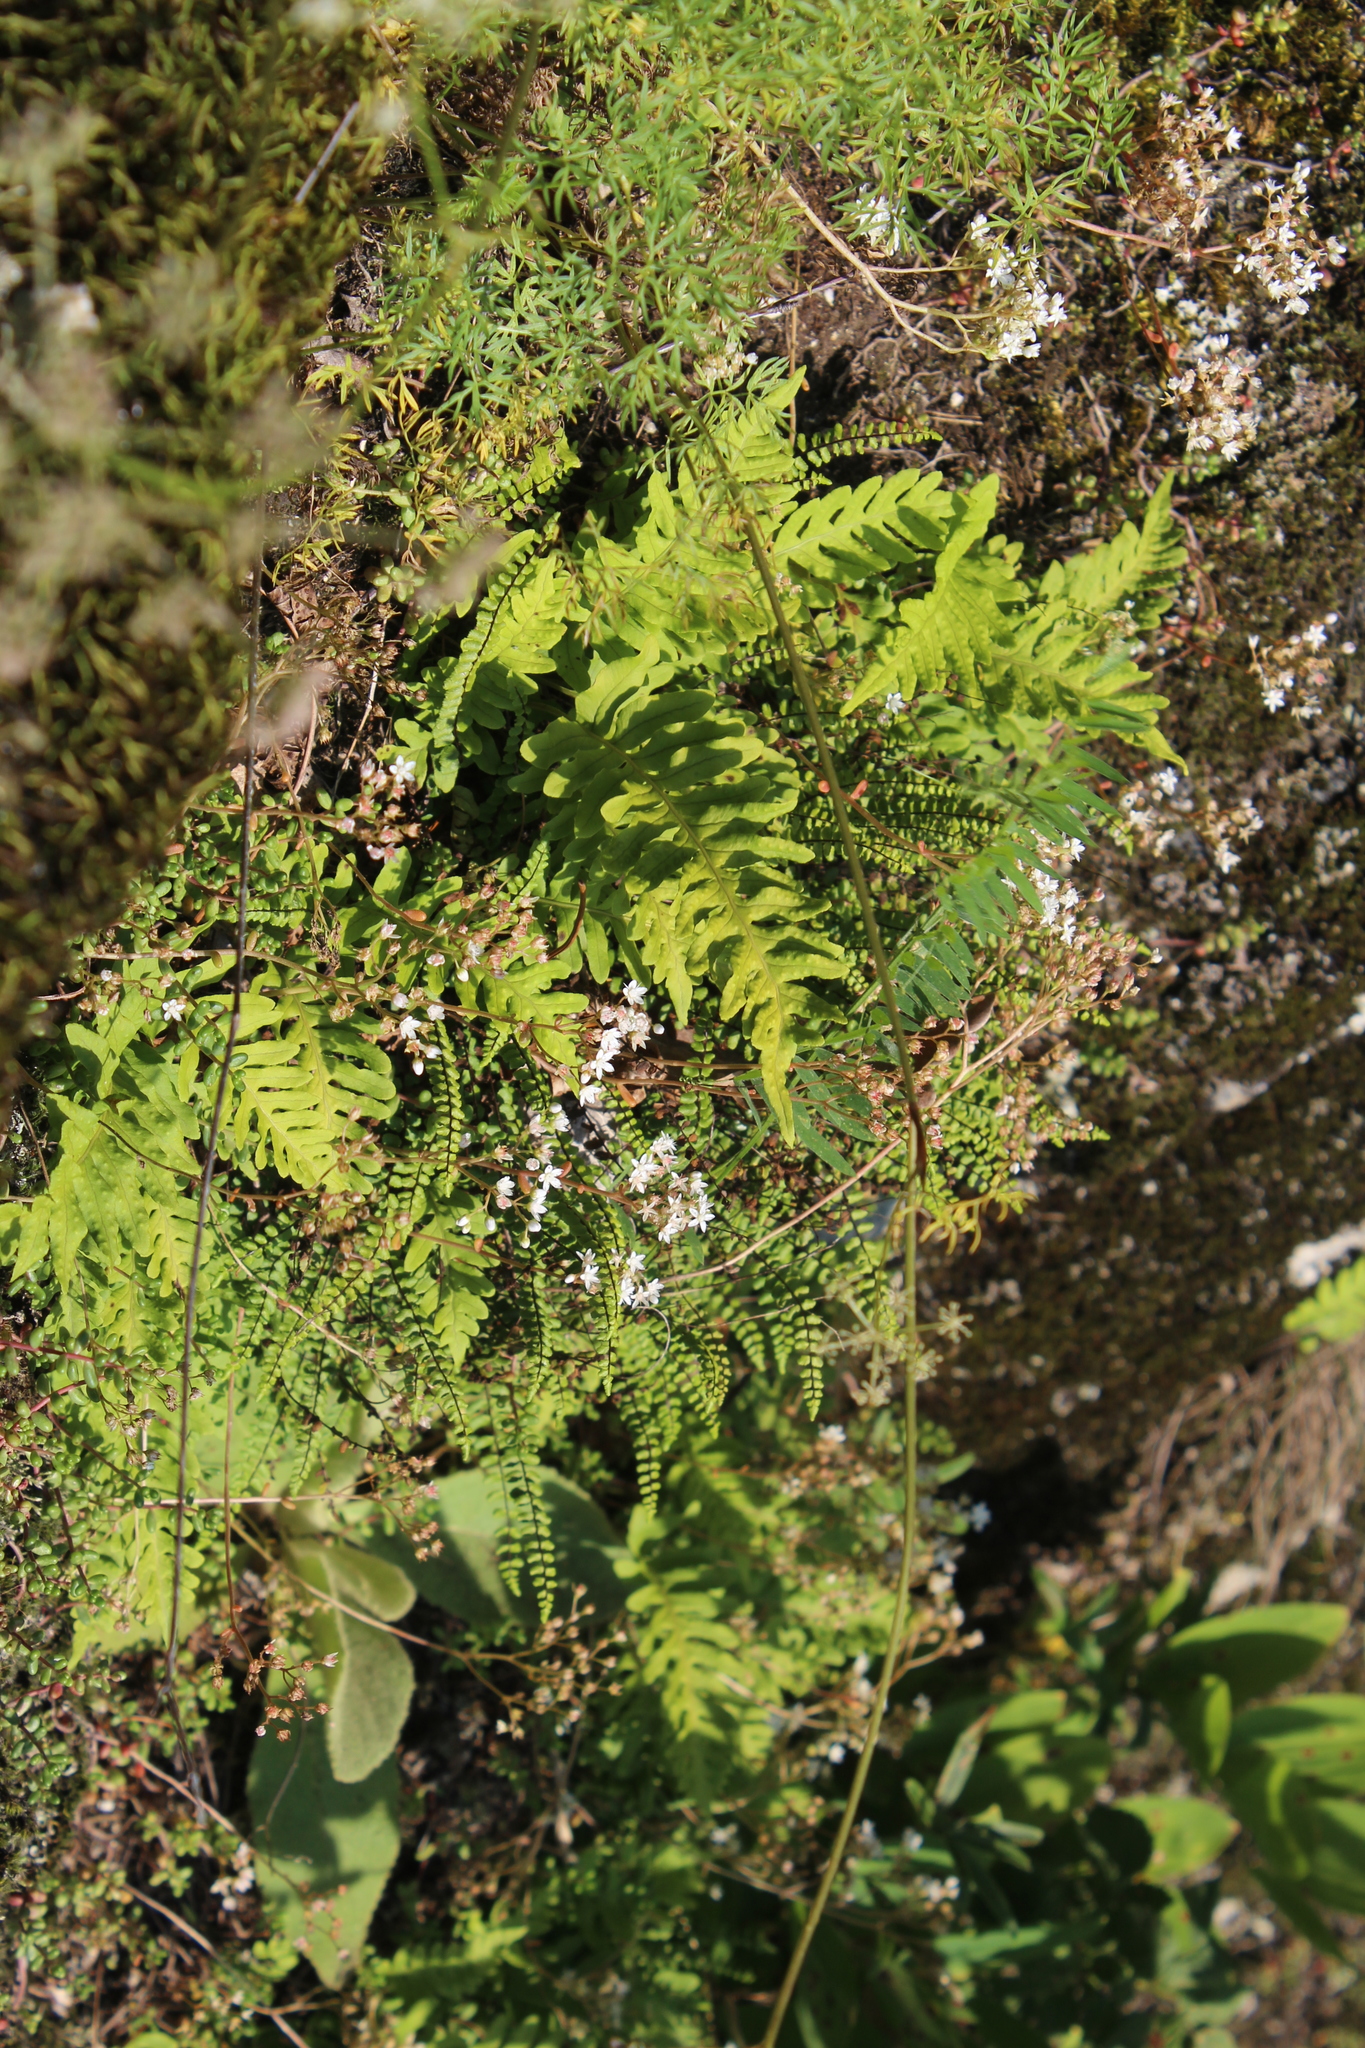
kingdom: Plantae
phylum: Tracheophyta
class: Polypodiopsida
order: Polypodiales
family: Aspleniaceae
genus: Asplenium
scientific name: Asplenium trichomanes
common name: Maidenhair spleenwort
